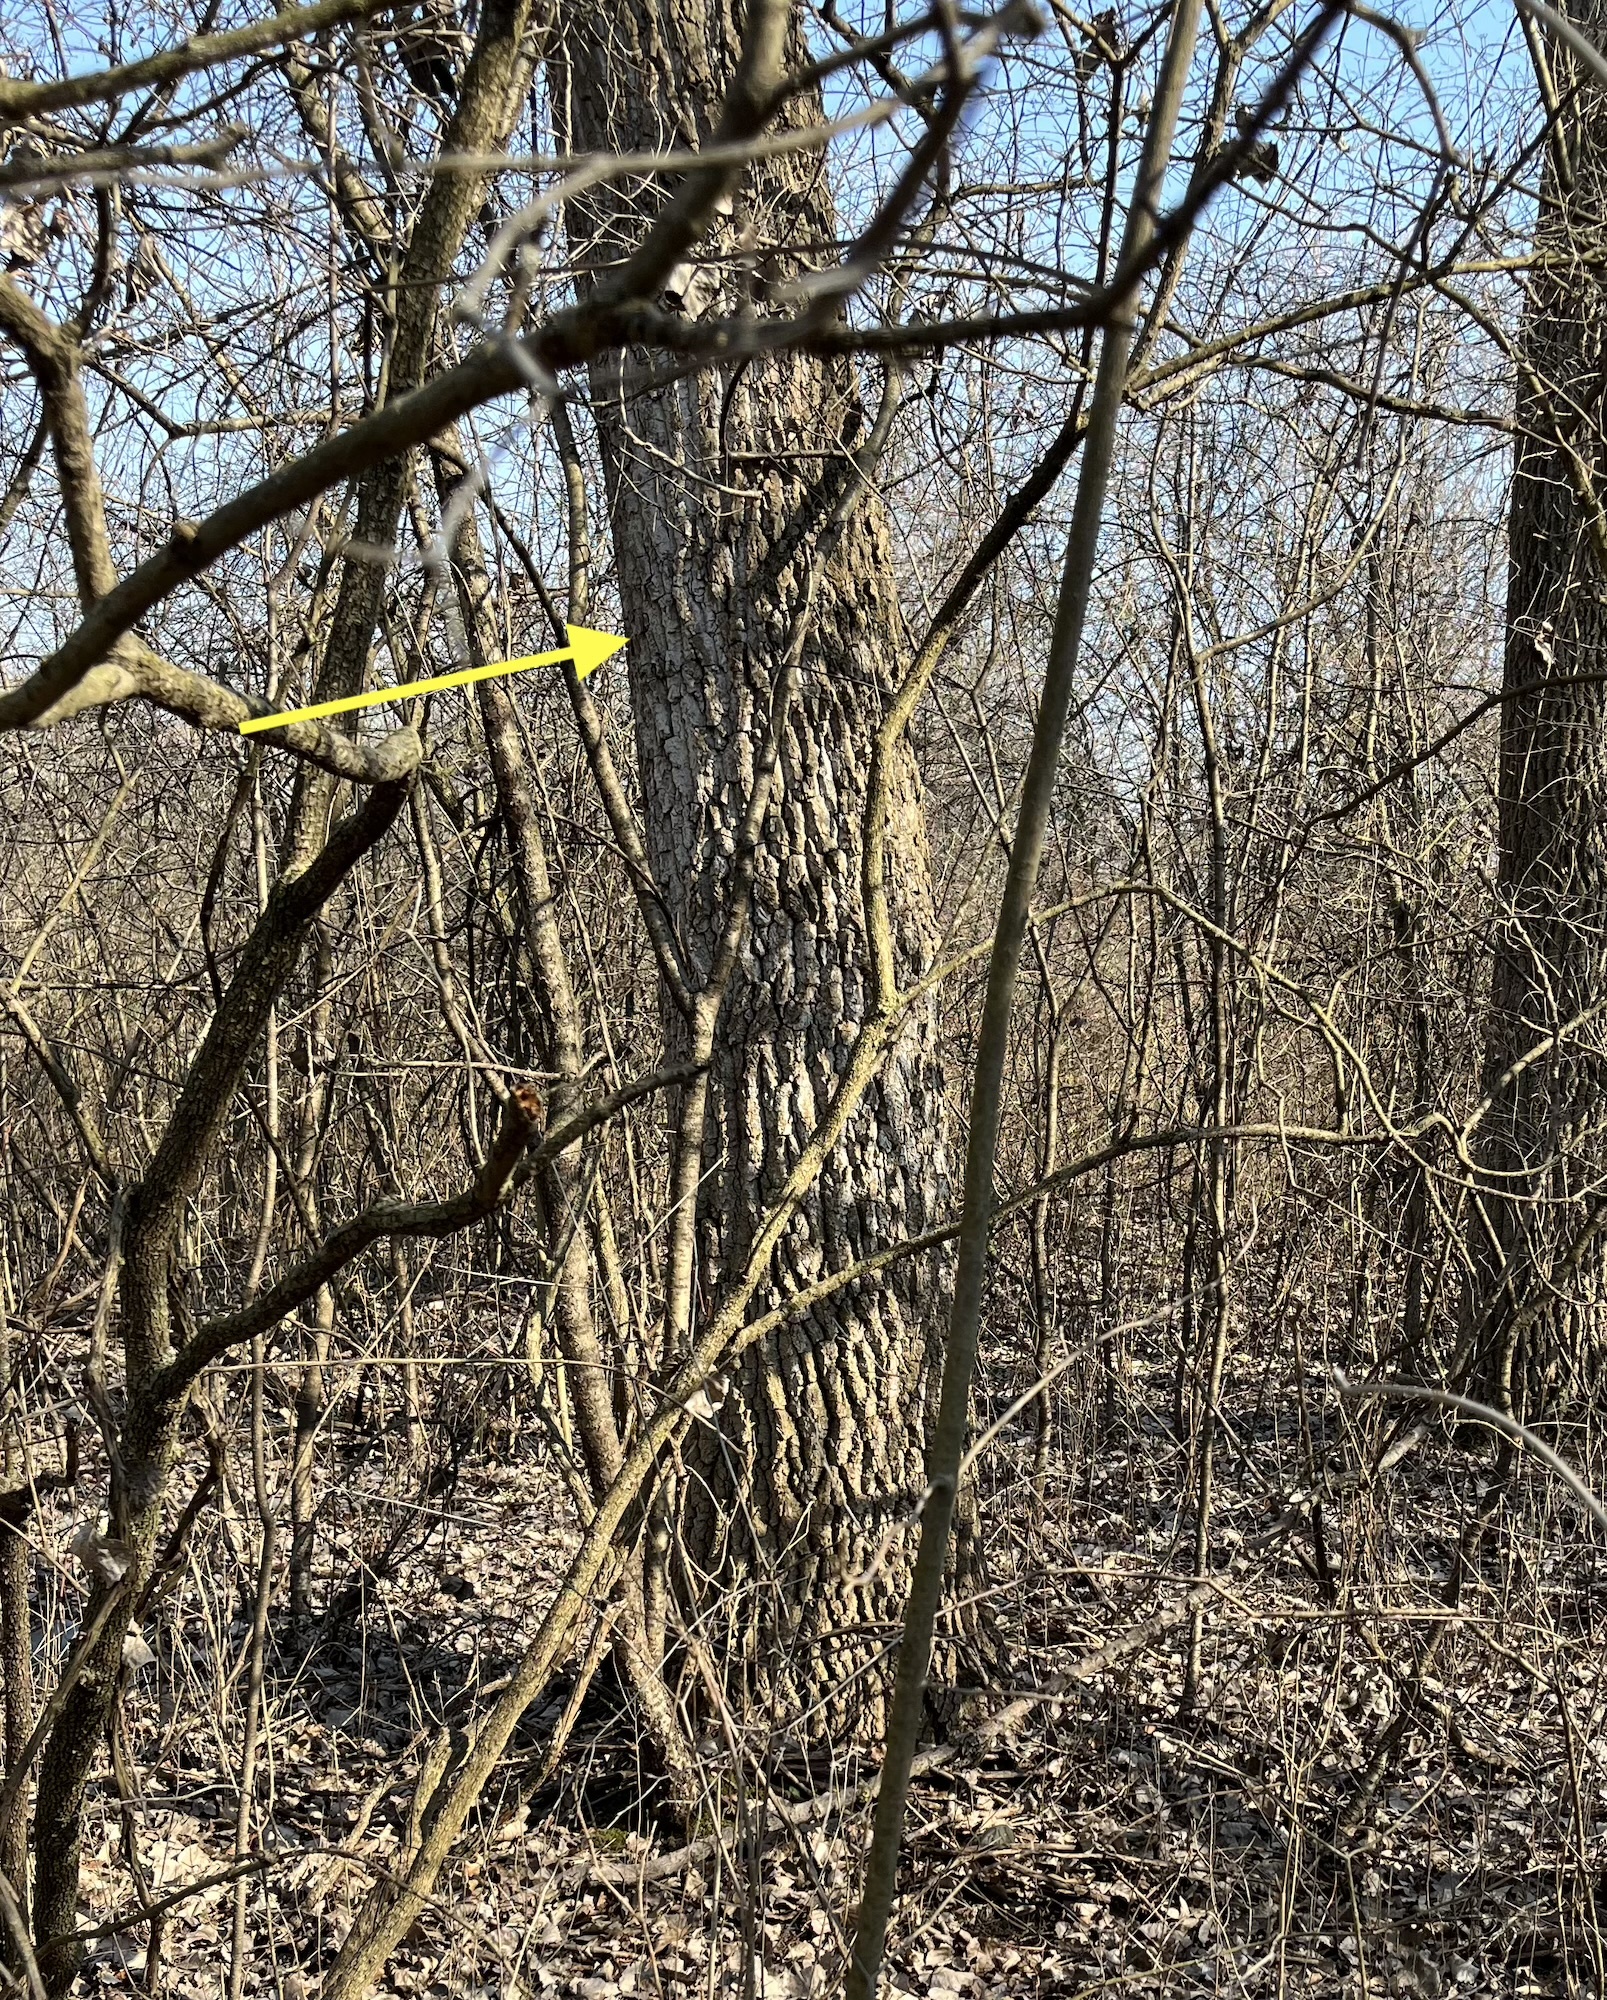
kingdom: Plantae
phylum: Tracheophyta
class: Magnoliopsida
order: Malpighiales
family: Salicaceae
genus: Populus
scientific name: Populus deltoides
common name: Eastern cottonwood
